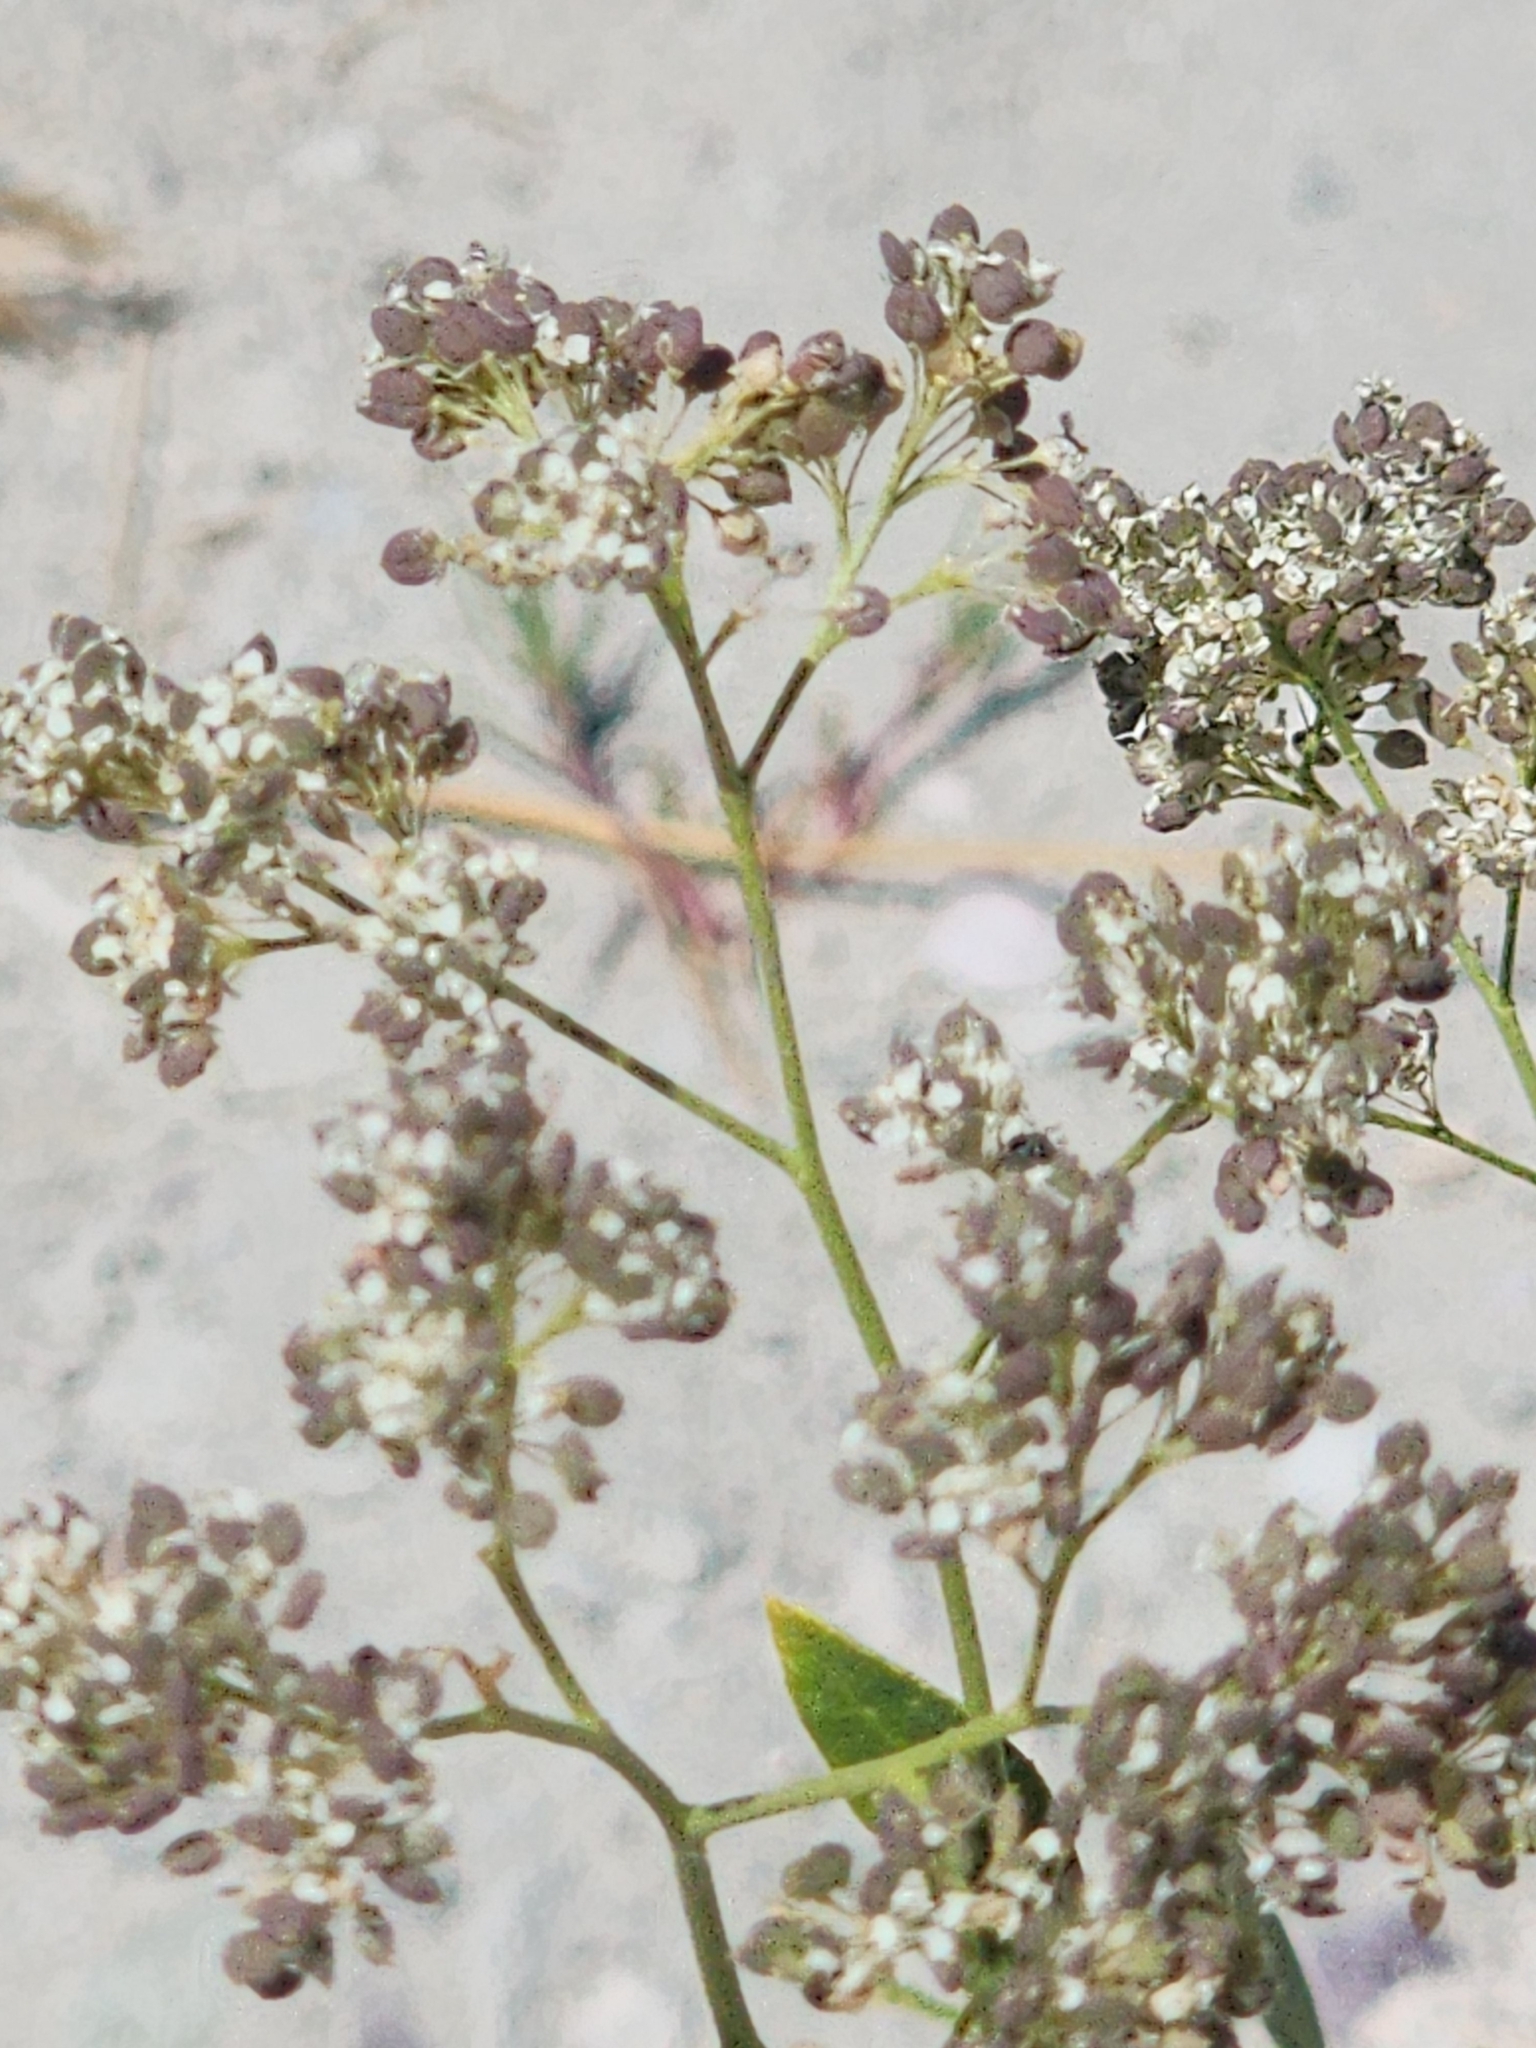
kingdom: Plantae
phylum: Tracheophyta
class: Magnoliopsida
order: Brassicales
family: Brassicaceae
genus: Lepidium
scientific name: Lepidium latifolium
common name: Dittander
